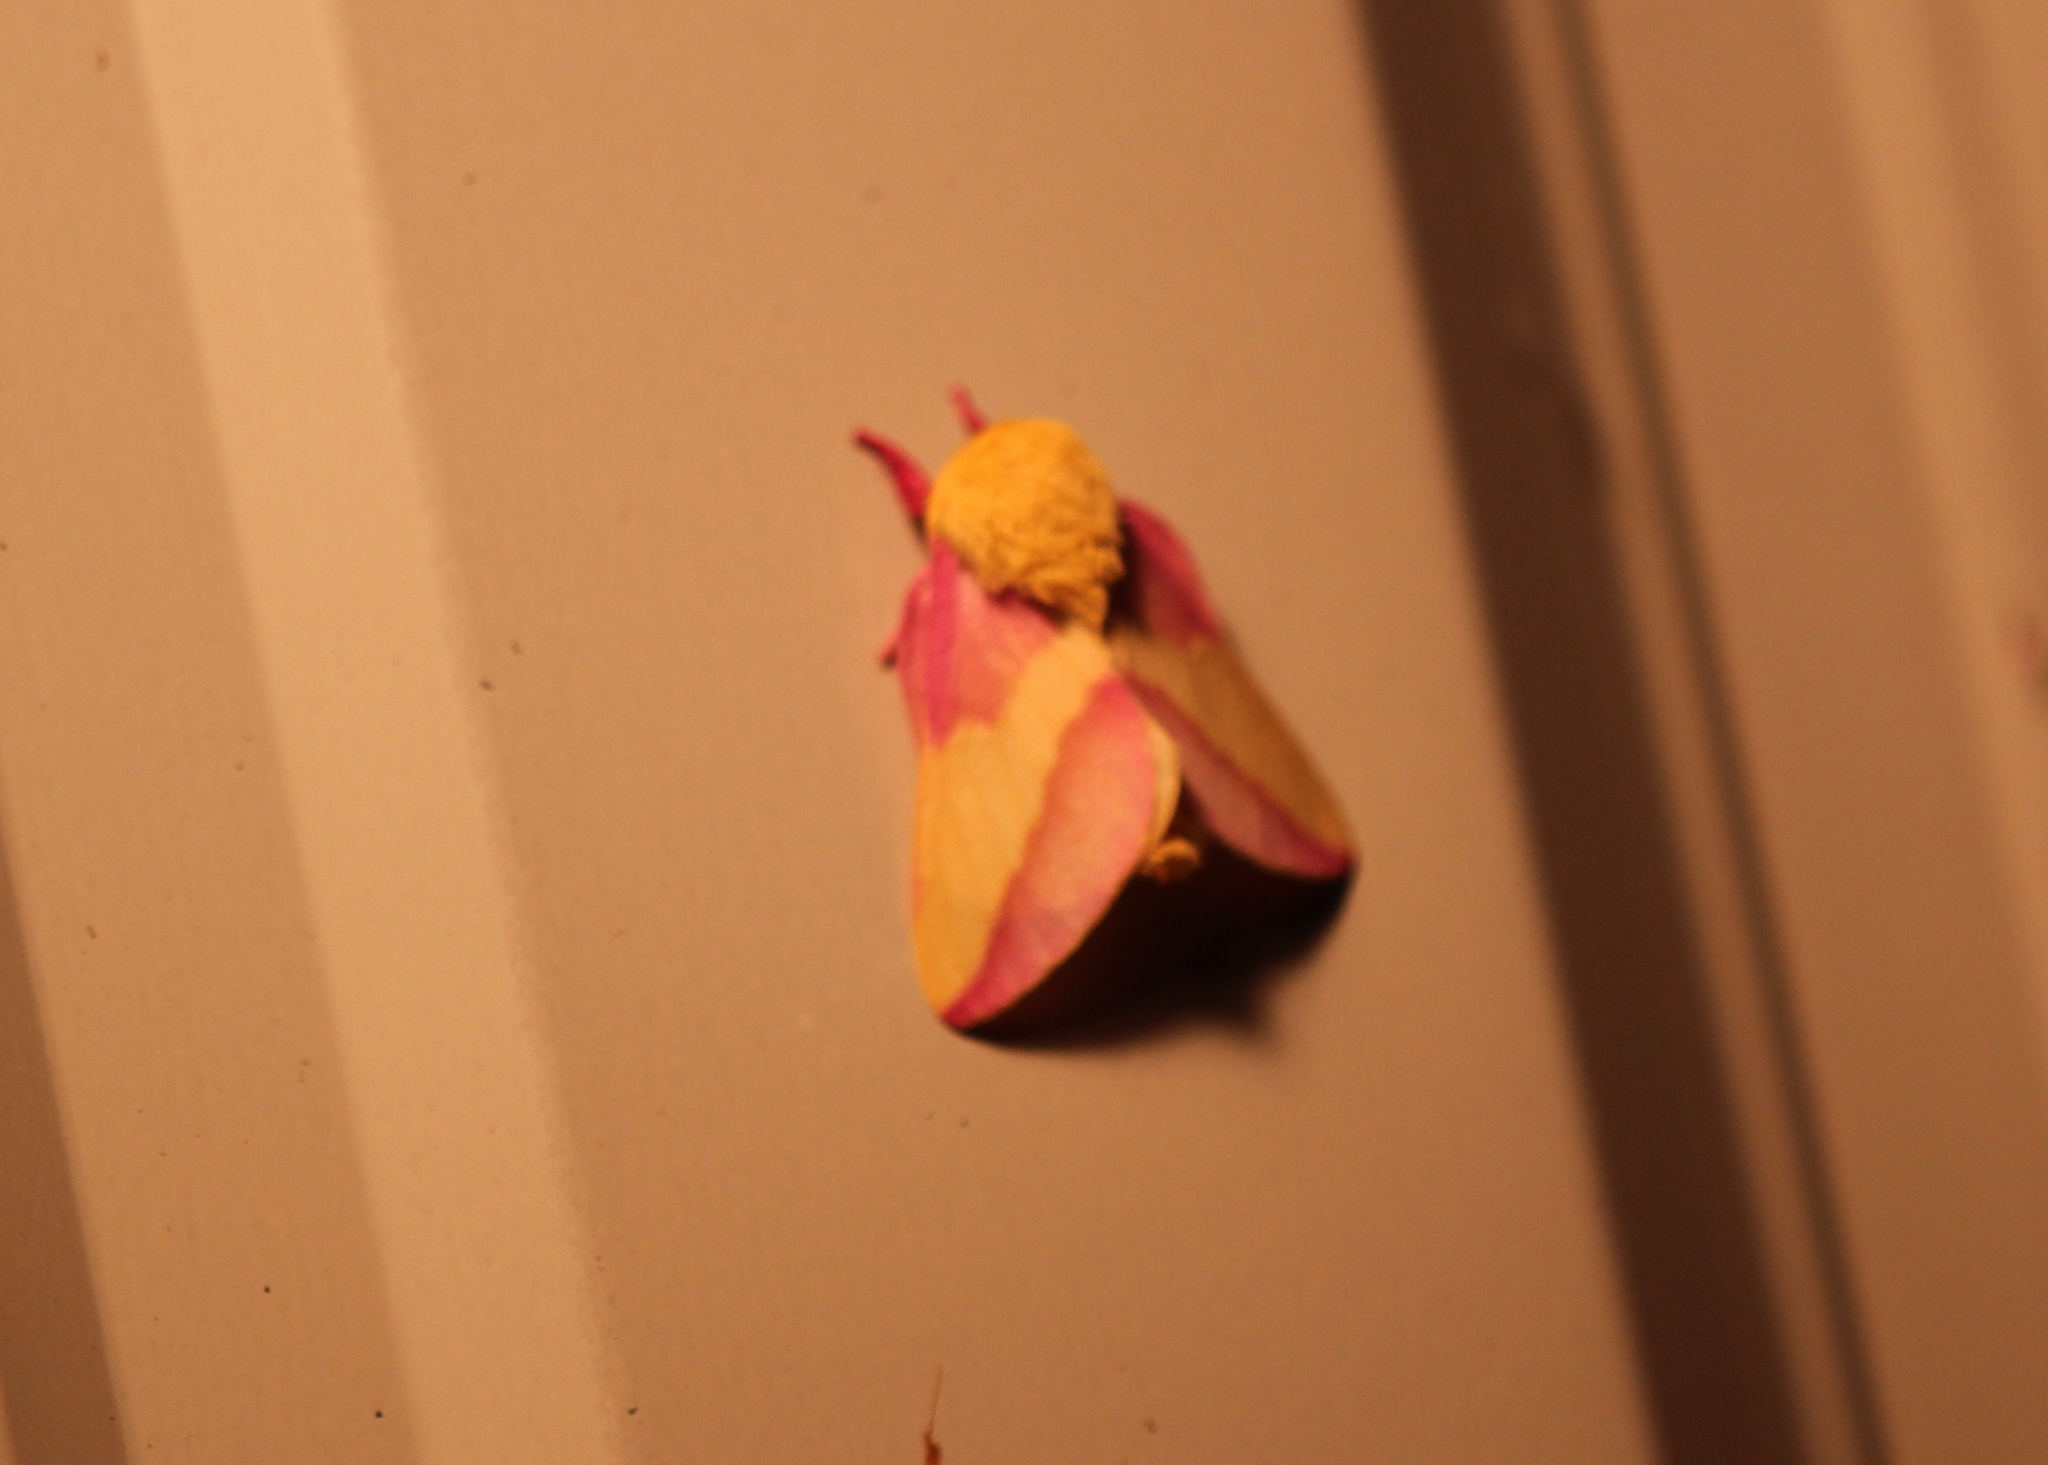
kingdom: Animalia
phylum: Arthropoda
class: Insecta
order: Lepidoptera
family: Saturniidae
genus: Dryocampa
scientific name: Dryocampa rubicunda
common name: Rosy maple moth
